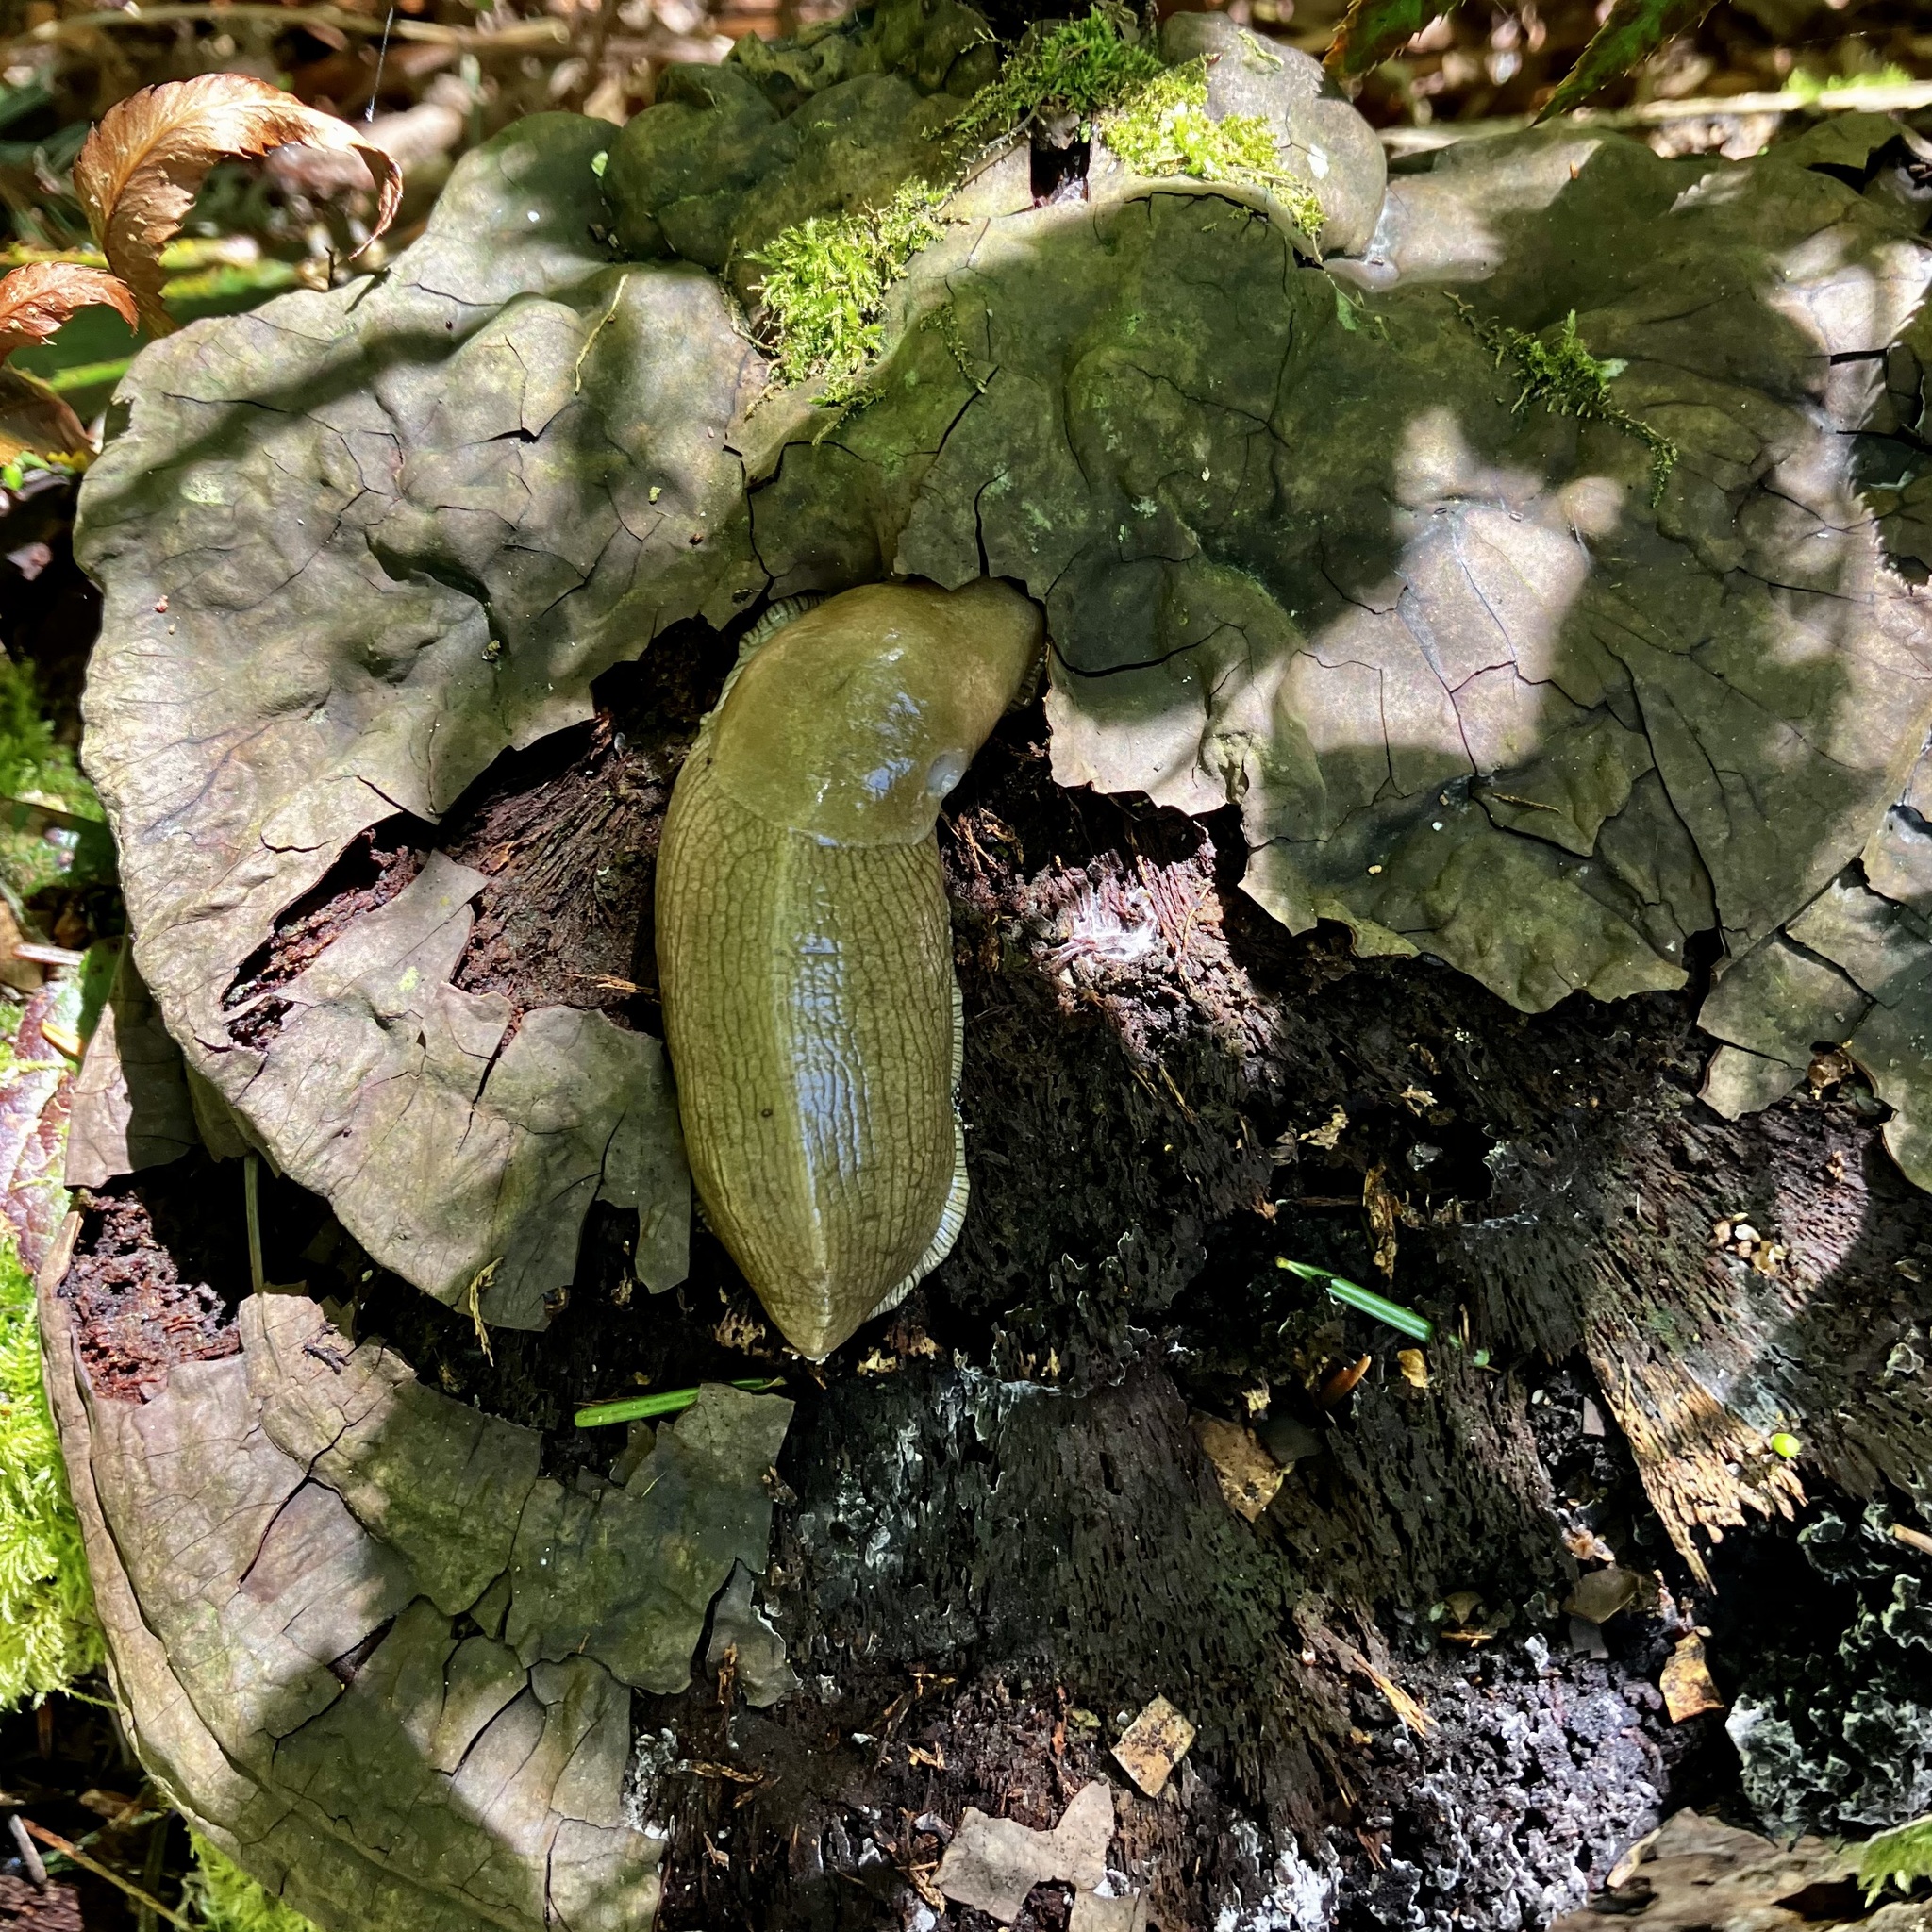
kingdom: Animalia
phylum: Mollusca
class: Gastropoda
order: Stylommatophora
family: Ariolimacidae
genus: Ariolimax
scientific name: Ariolimax columbianus
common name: Pacific banana slug
